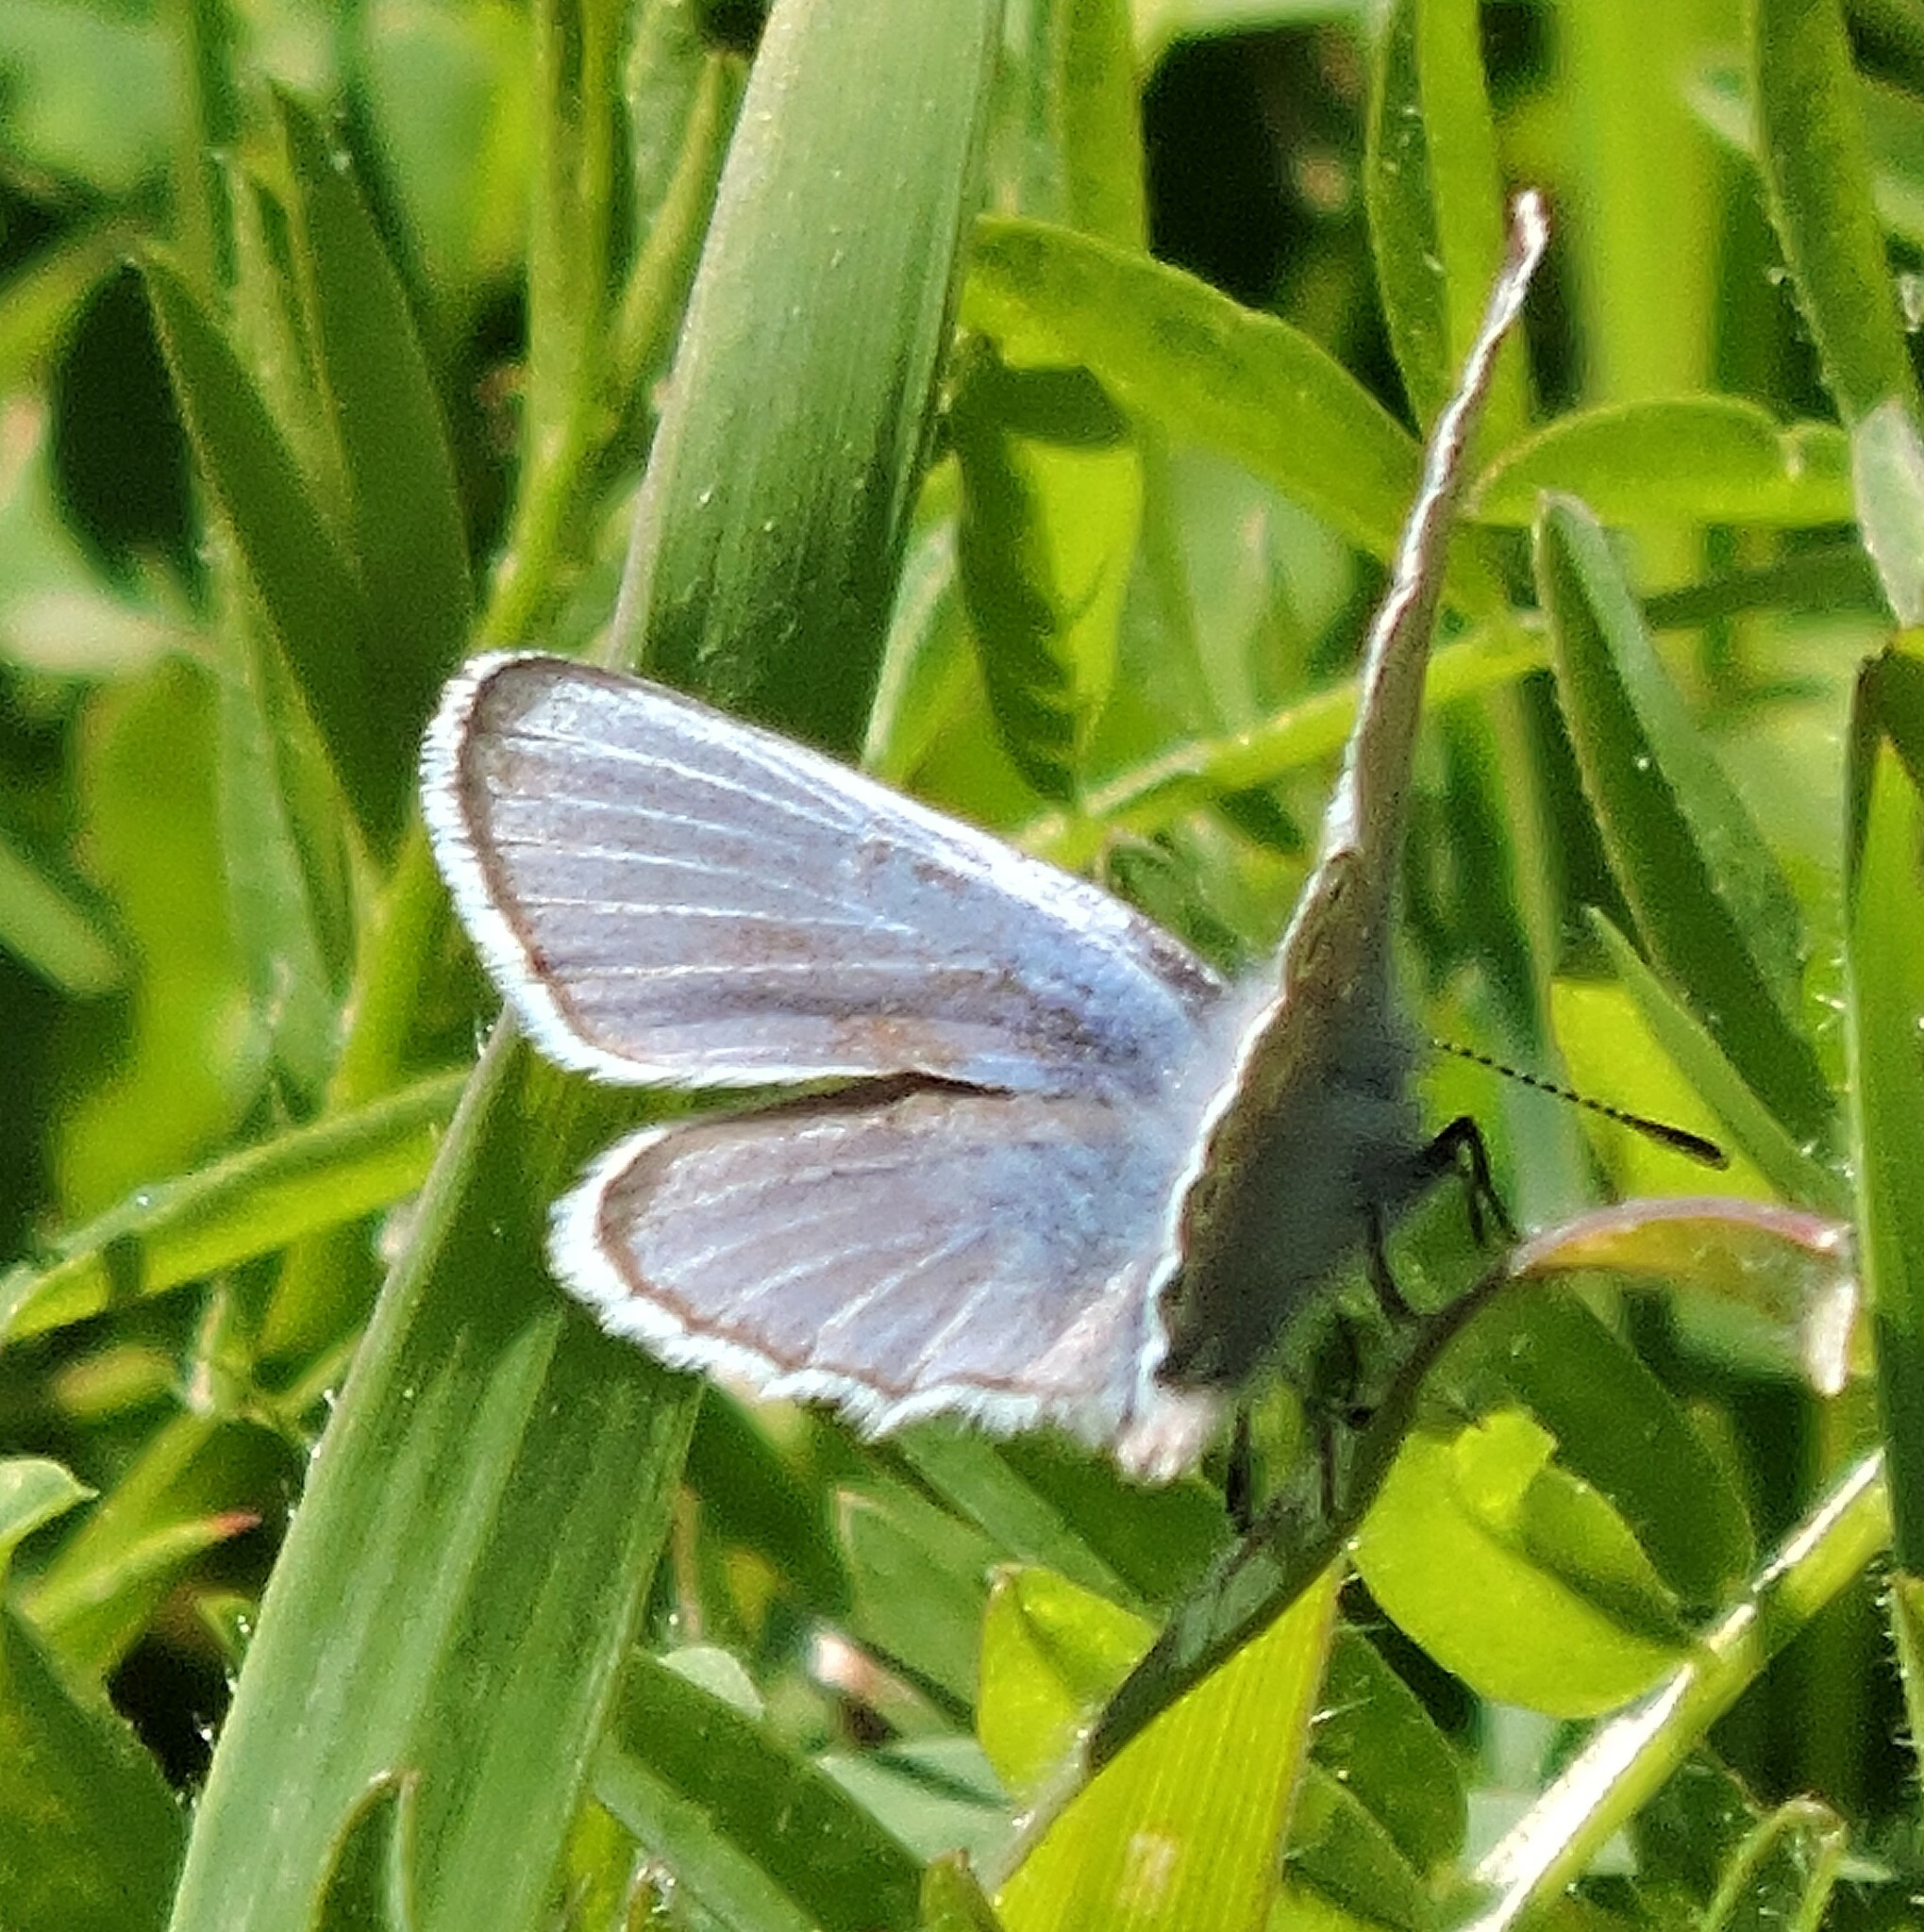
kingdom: Animalia
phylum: Arthropoda
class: Insecta
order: Lepidoptera
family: Lycaenidae
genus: Glaucopsyche
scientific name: Glaucopsyche lygdamus
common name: Silvery blue
